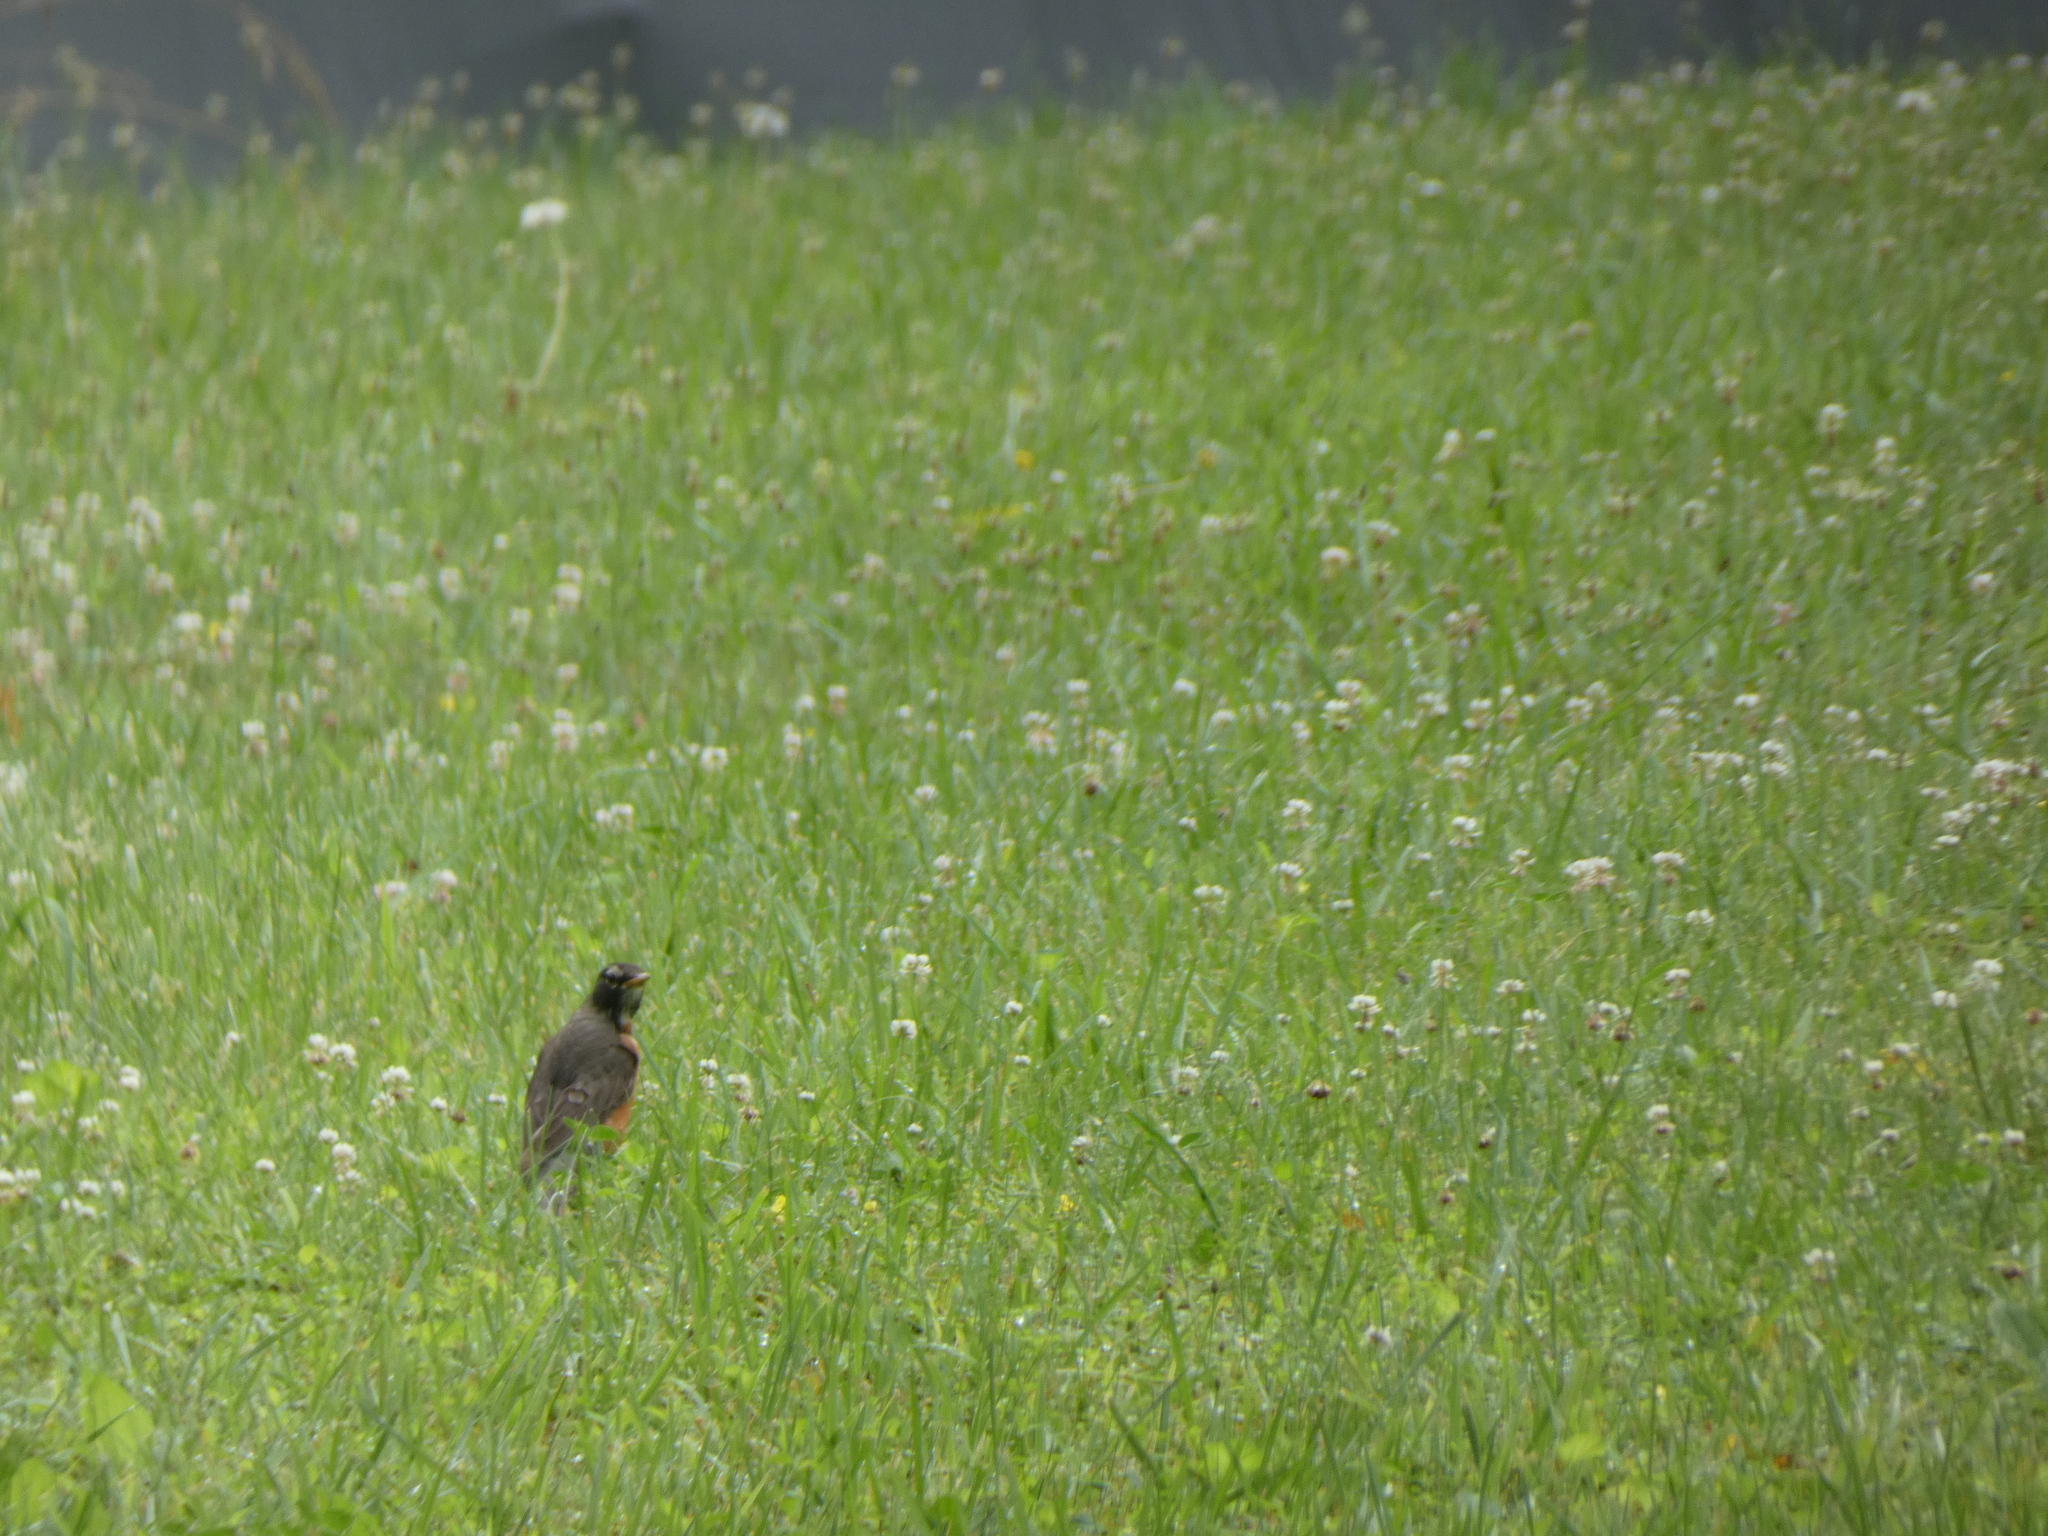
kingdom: Animalia
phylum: Chordata
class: Aves
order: Passeriformes
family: Turdidae
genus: Turdus
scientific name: Turdus migratorius
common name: American robin
